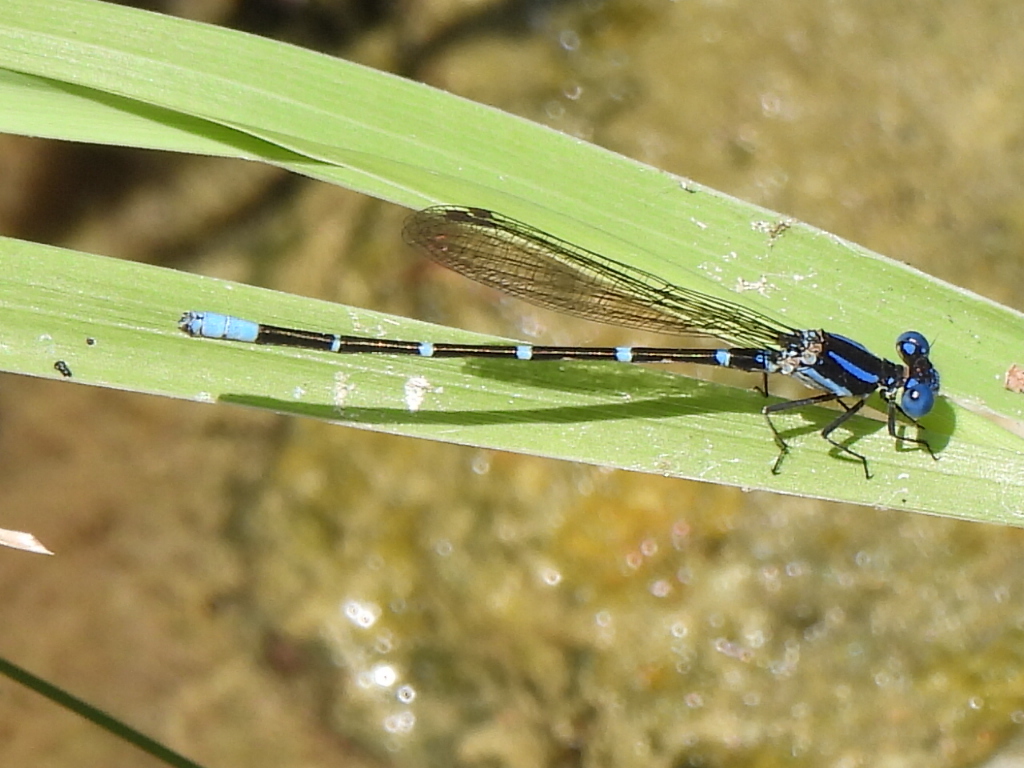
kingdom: Animalia
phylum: Arthropoda
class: Insecta
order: Odonata
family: Coenagrionidae
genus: Argia
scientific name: Argia sedula
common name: Blue-ringed dancer
